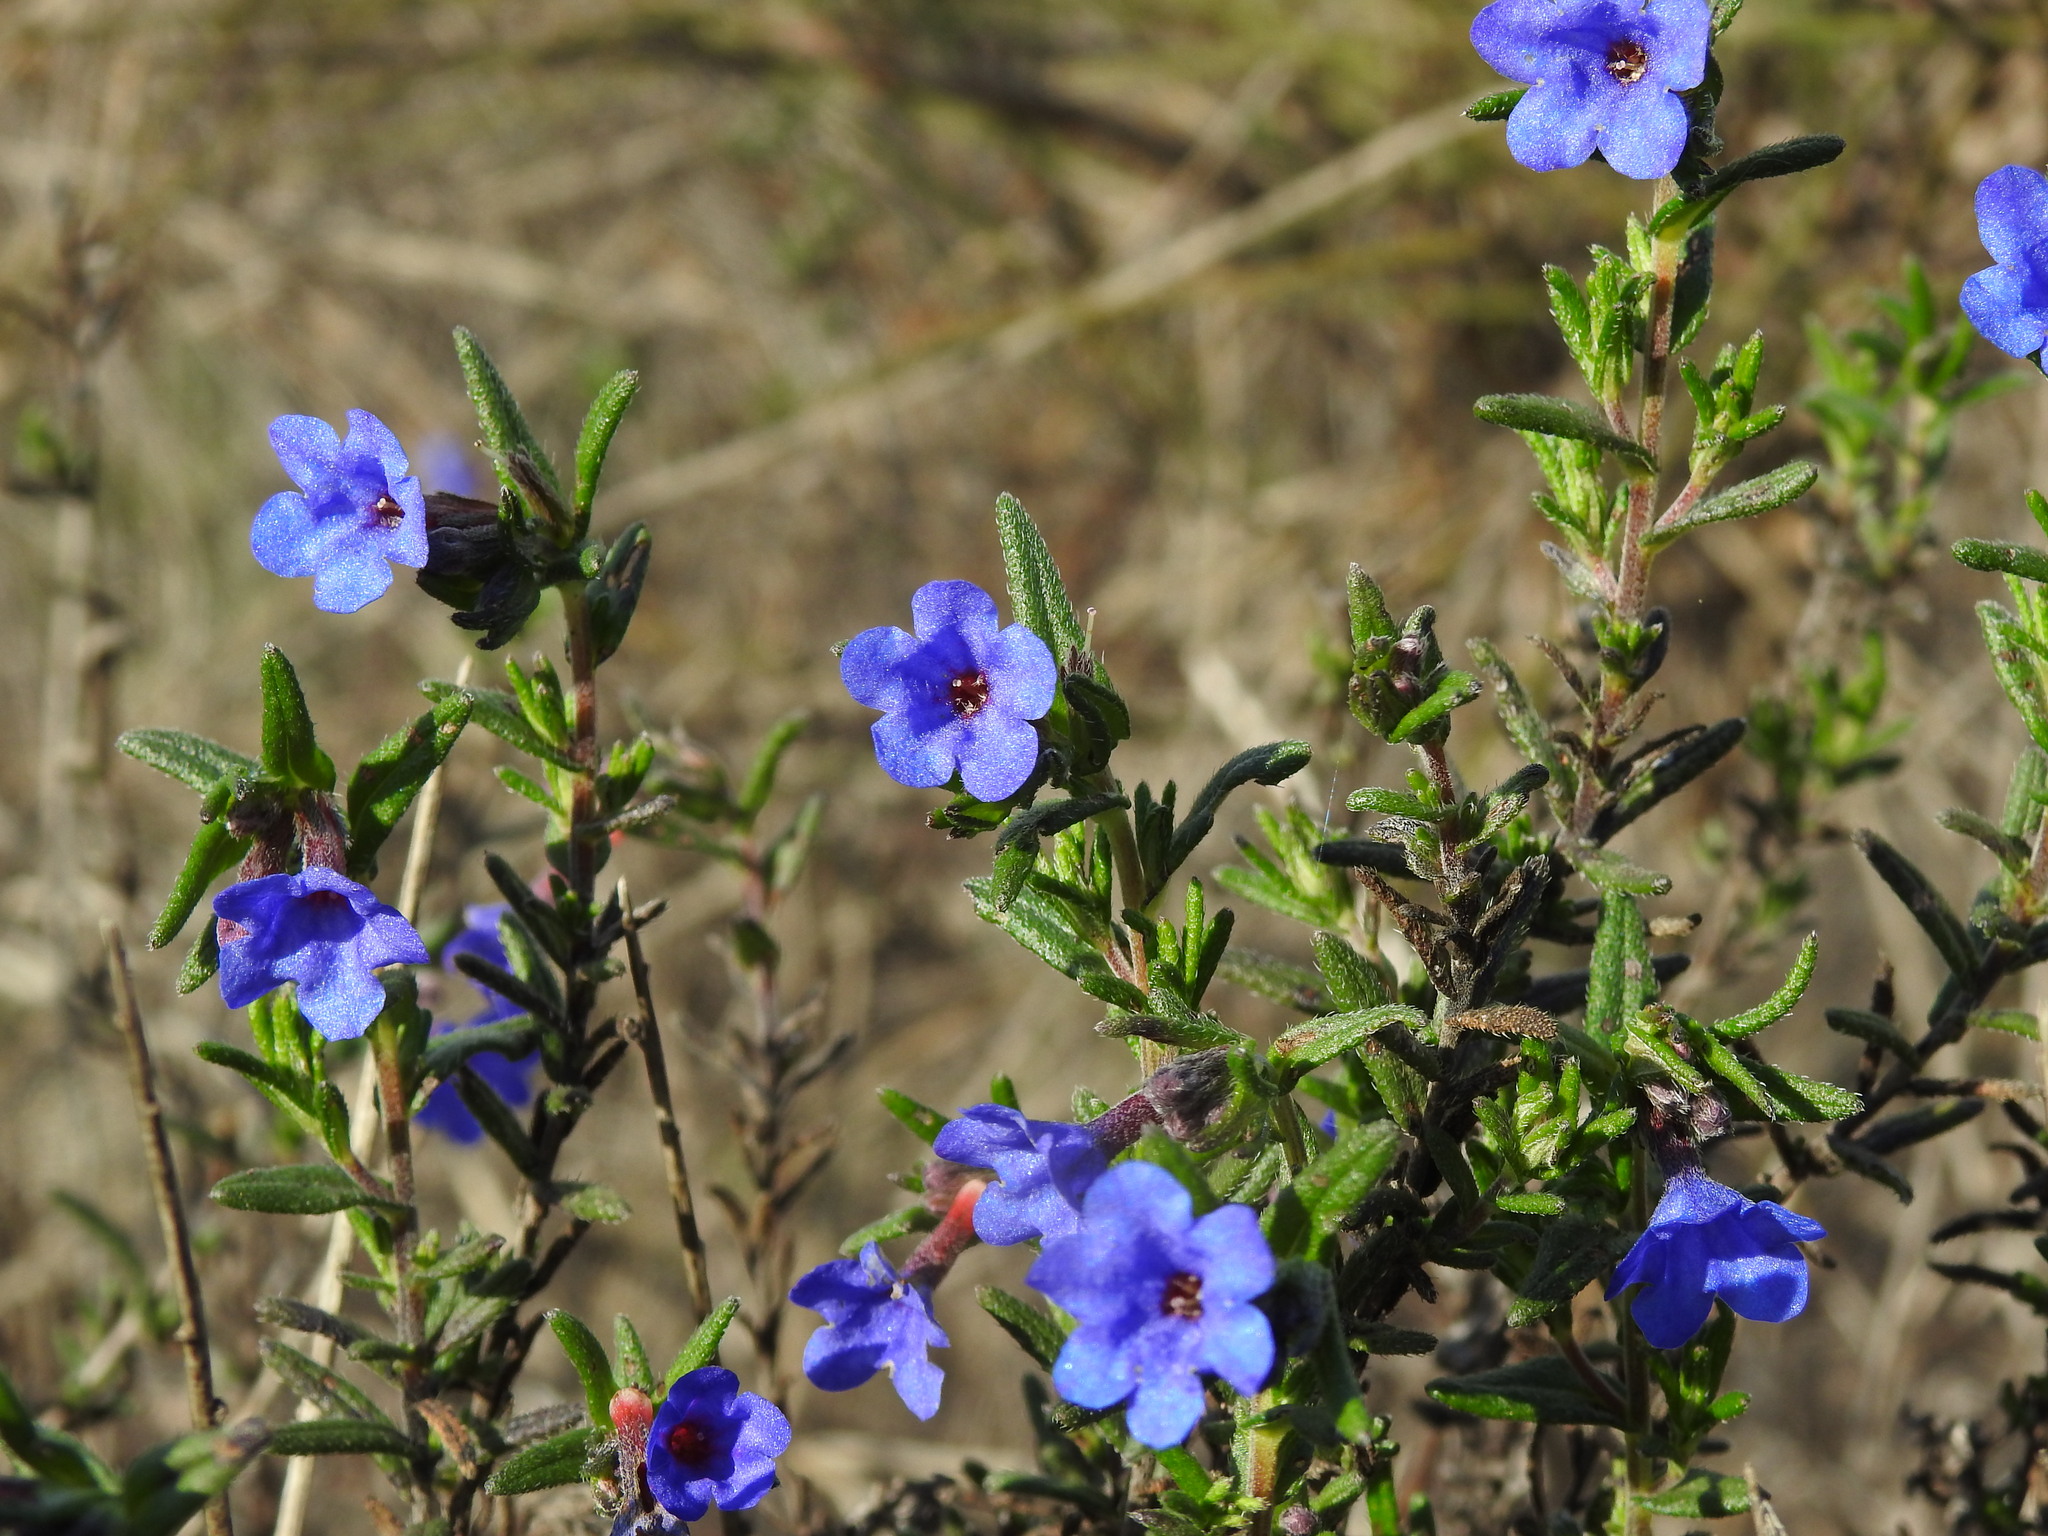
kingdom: Plantae
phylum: Tracheophyta
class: Magnoliopsida
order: Boraginales
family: Boraginaceae
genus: Glandora
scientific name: Glandora prostrata
